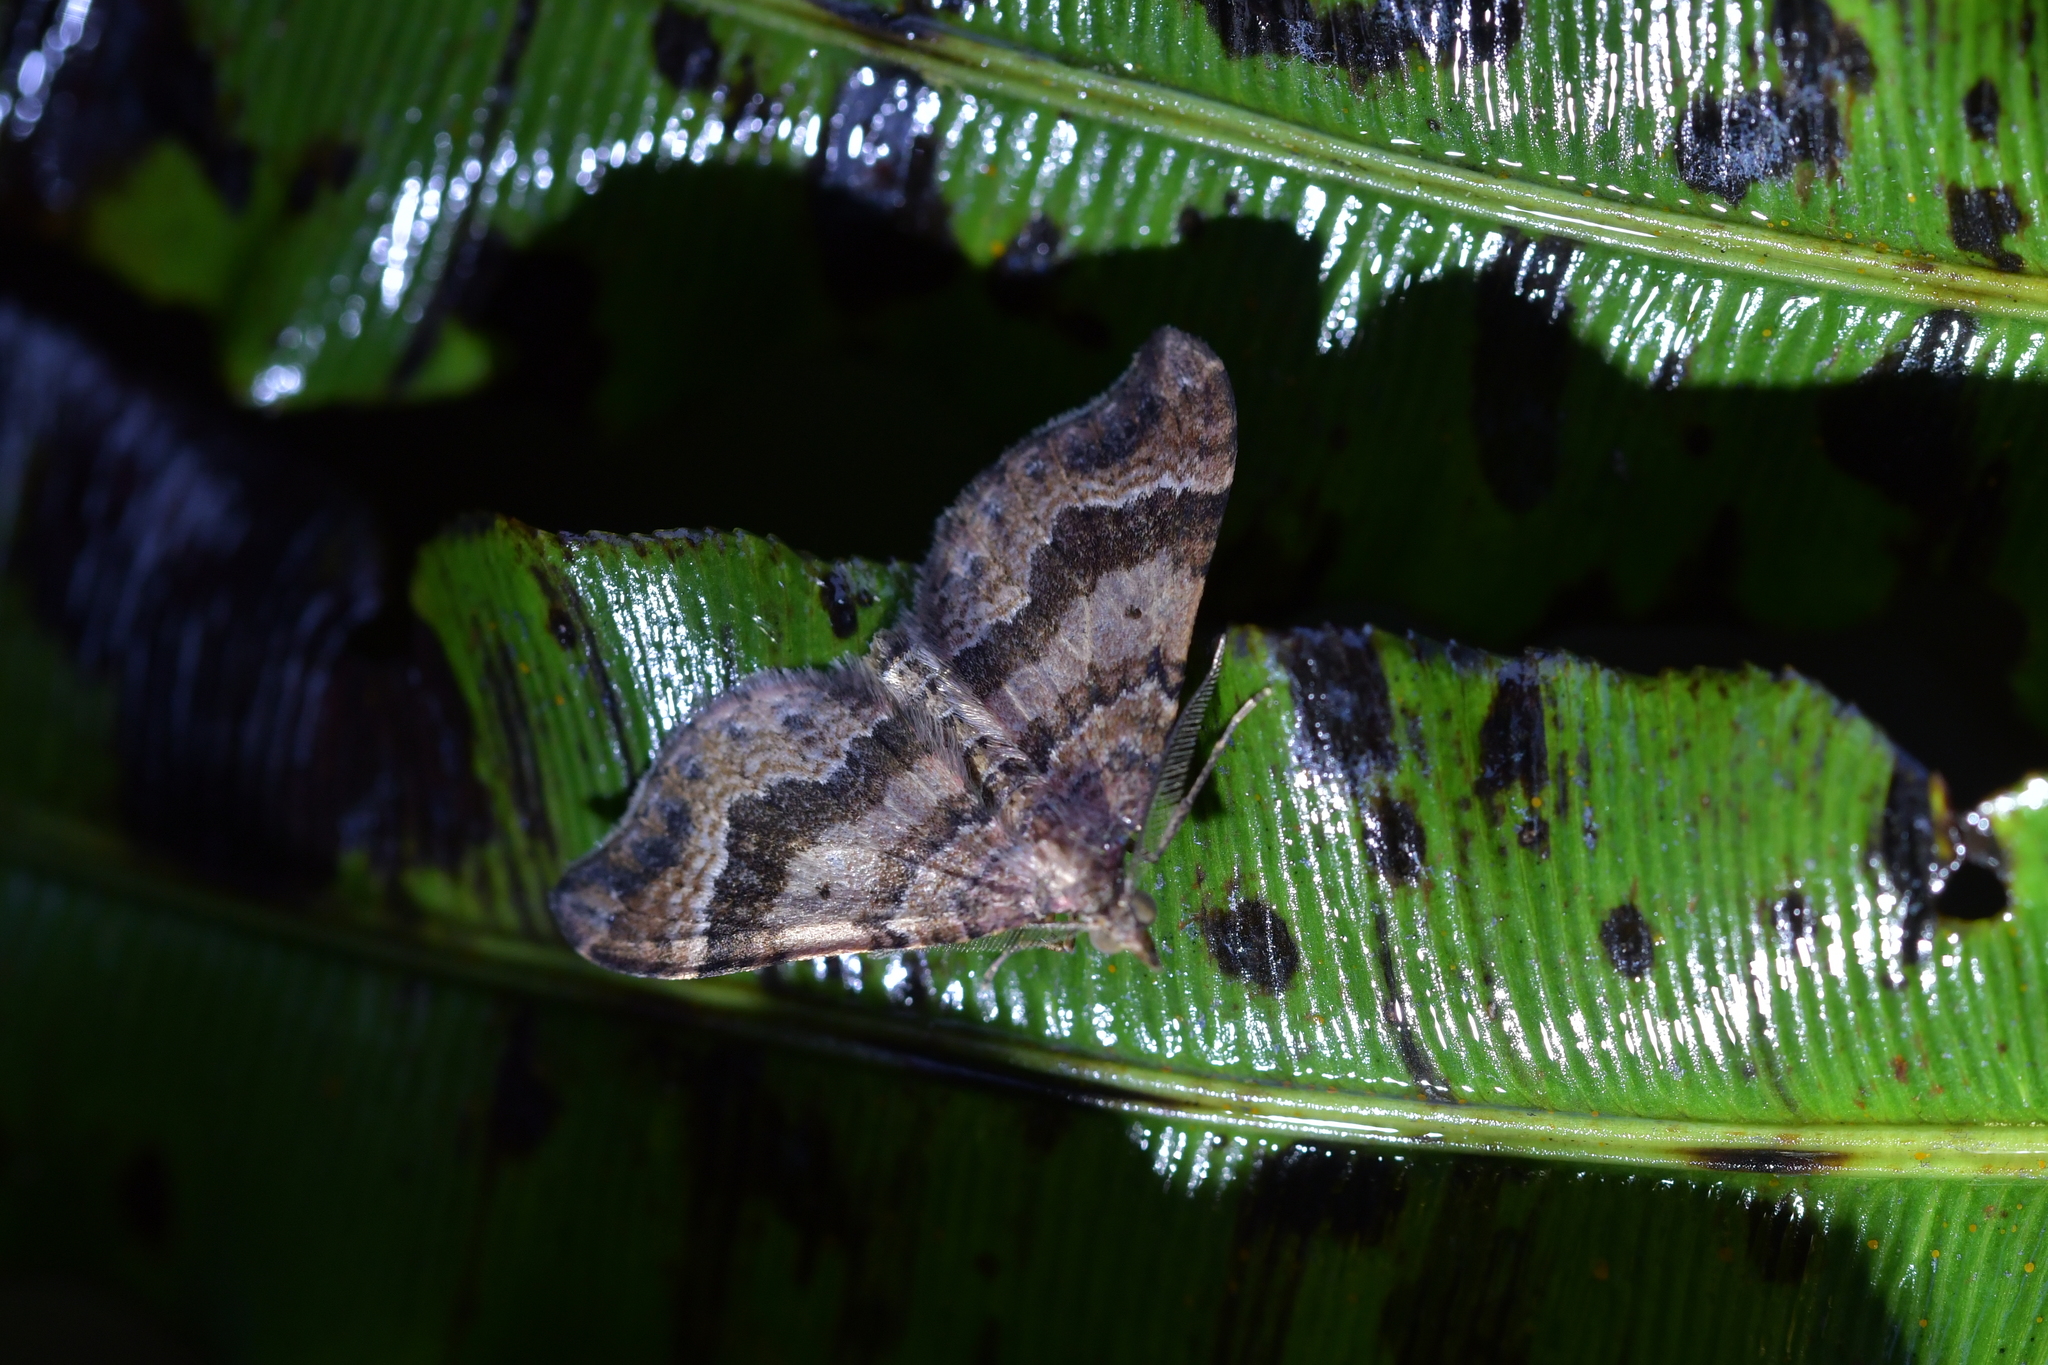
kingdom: Animalia
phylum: Arthropoda
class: Insecta
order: Lepidoptera
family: Geometridae
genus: Homodotis
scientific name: Homodotis megaspilata
